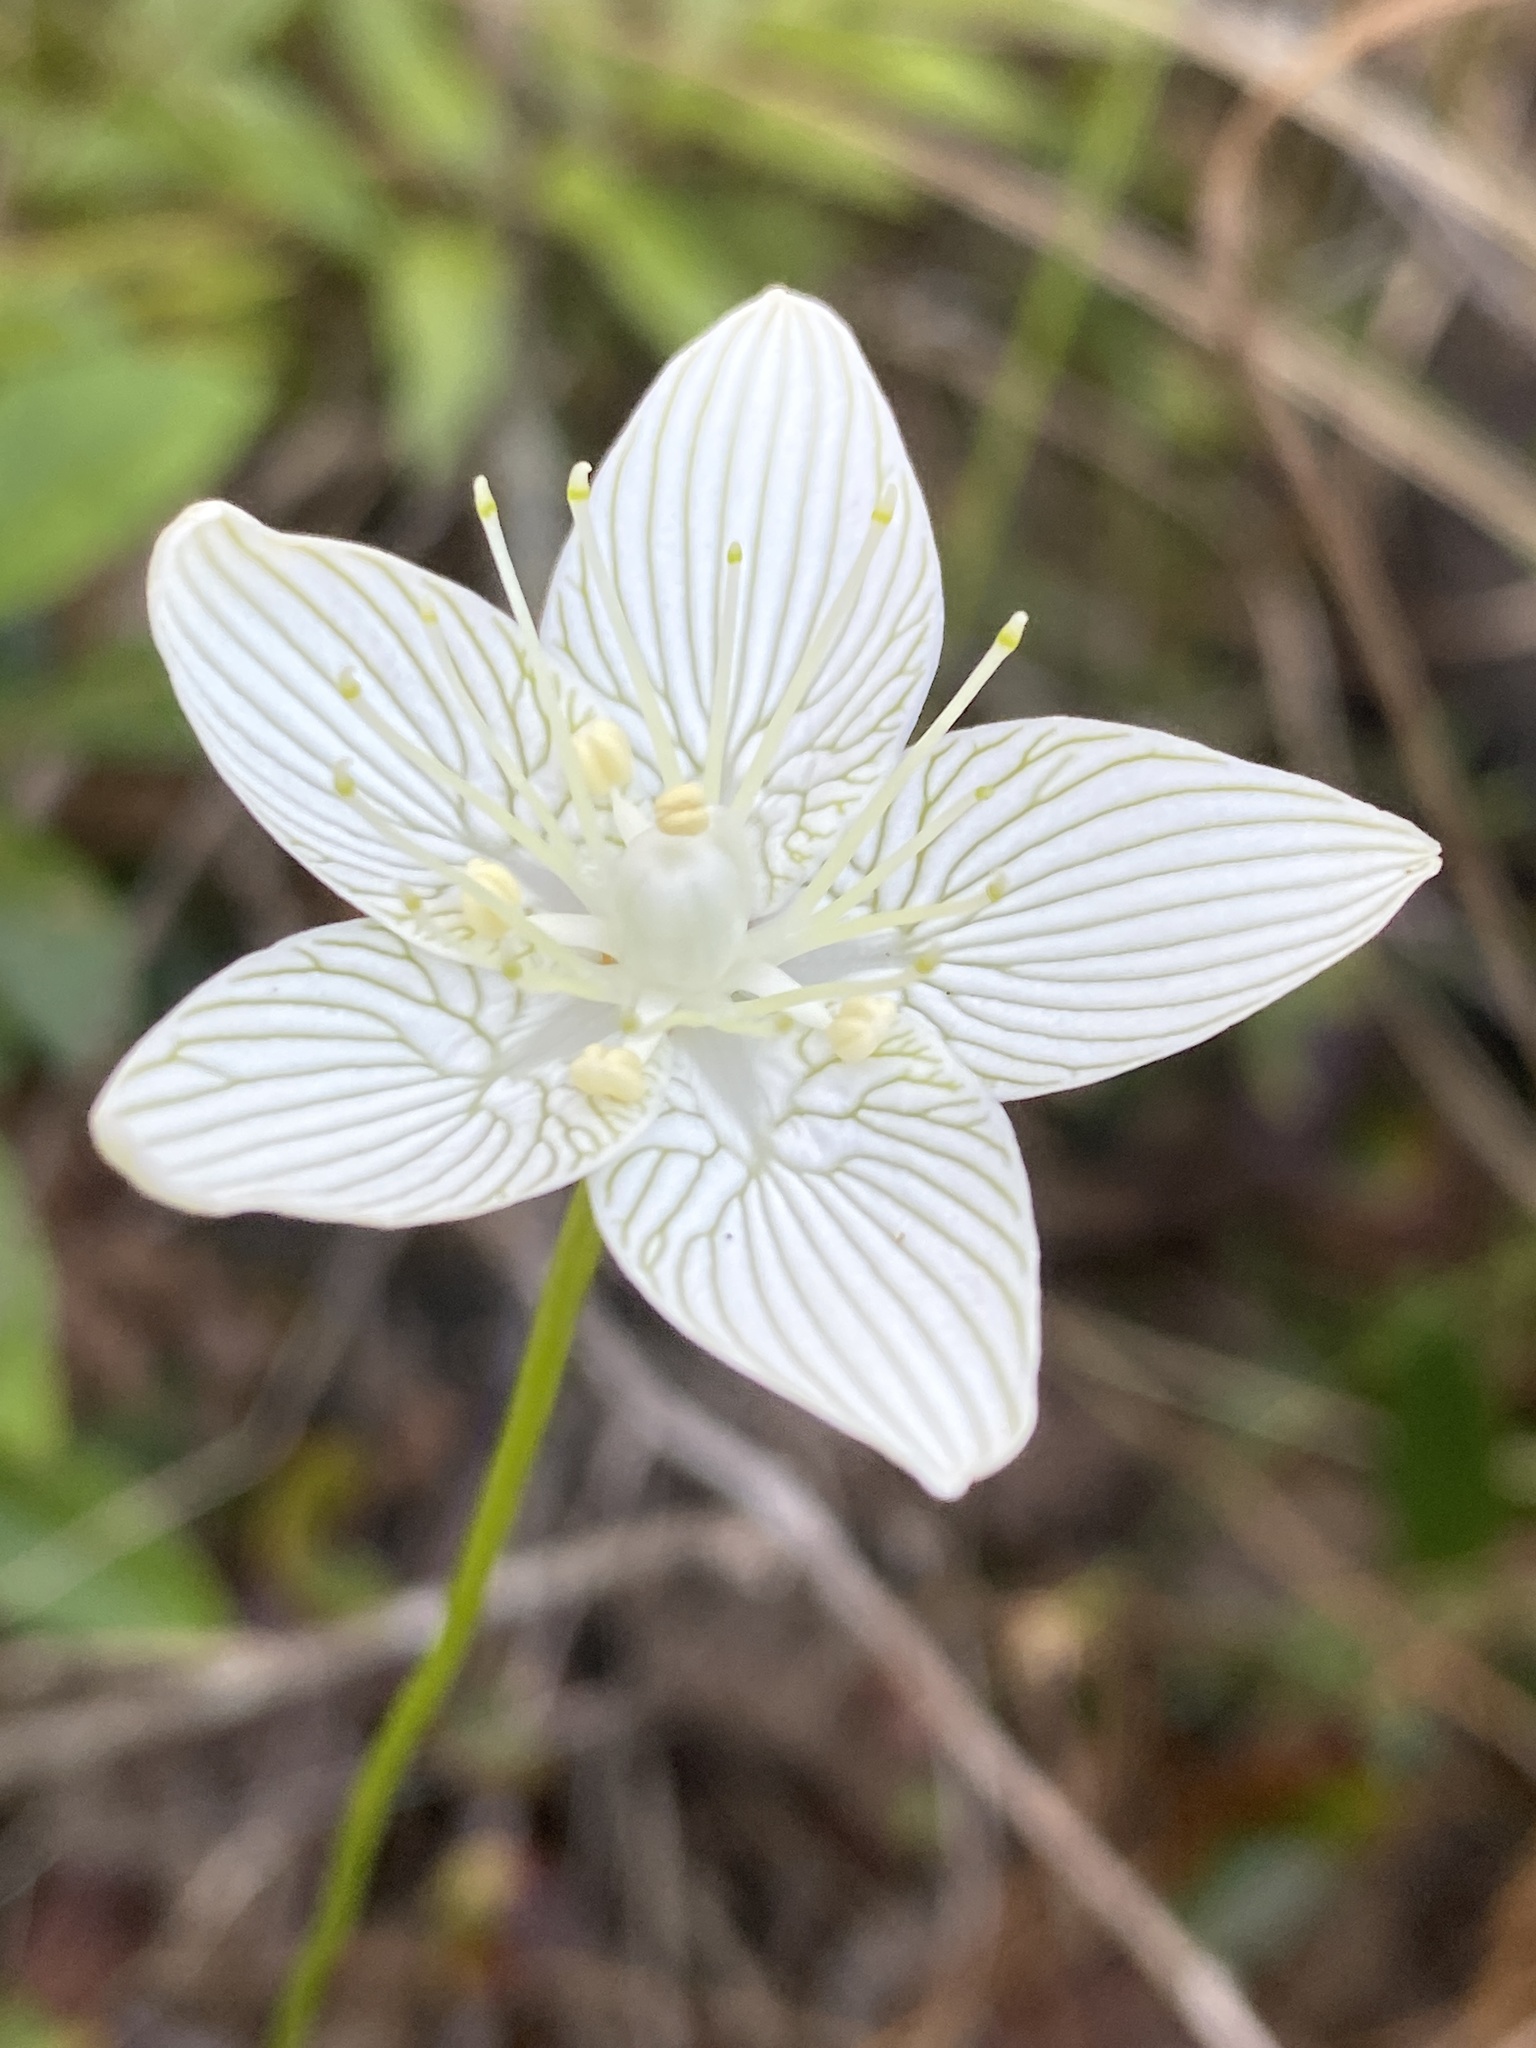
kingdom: Plantae
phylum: Tracheophyta
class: Magnoliopsida
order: Celastrales
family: Parnassiaceae
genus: Parnassia
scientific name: Parnassia caroliniana
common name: Carolina grass of parnassus
